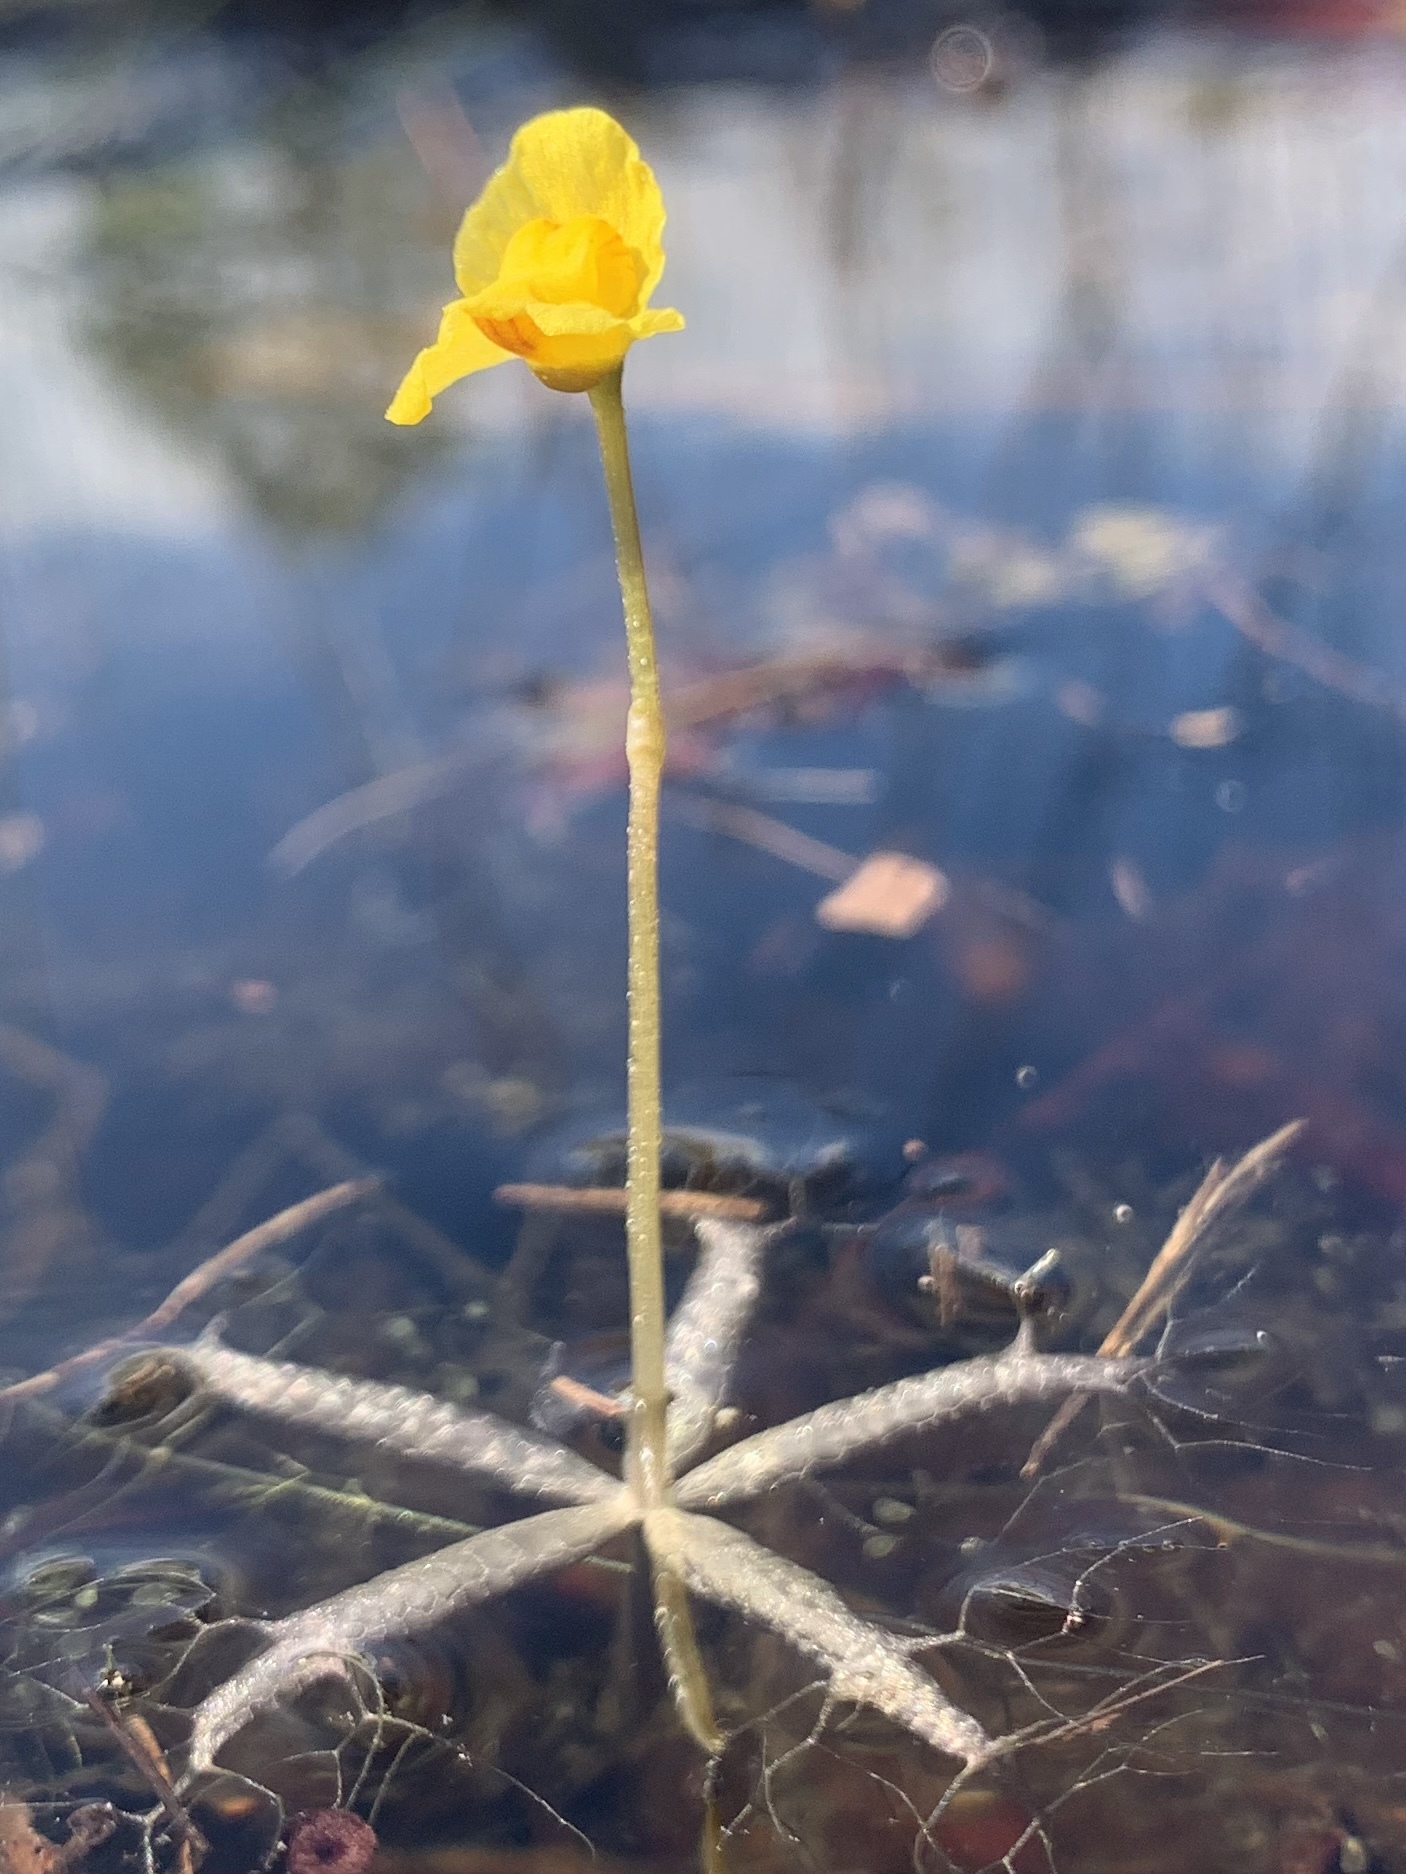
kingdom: Plantae
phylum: Tracheophyta
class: Magnoliopsida
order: Lamiales
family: Lentibulariaceae
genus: Utricularia
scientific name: Utricularia radiata
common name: Floating bladderwort
